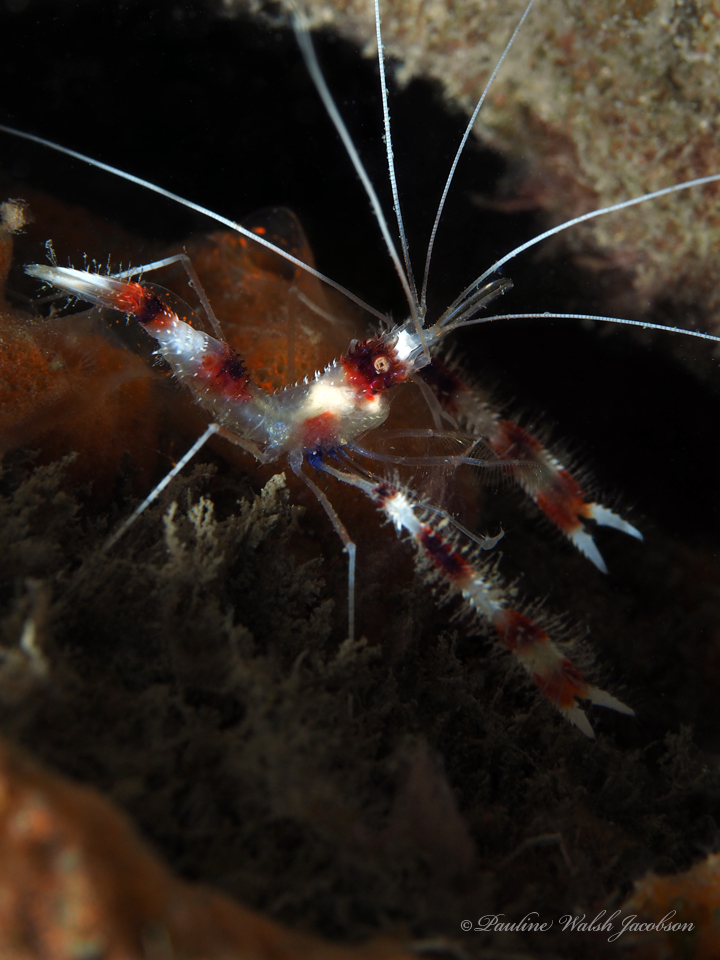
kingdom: Animalia
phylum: Arthropoda
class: Malacostraca
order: Decapoda
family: Stenopodidae
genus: Stenopus
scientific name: Stenopus hispidus
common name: Banded coral shrimp
